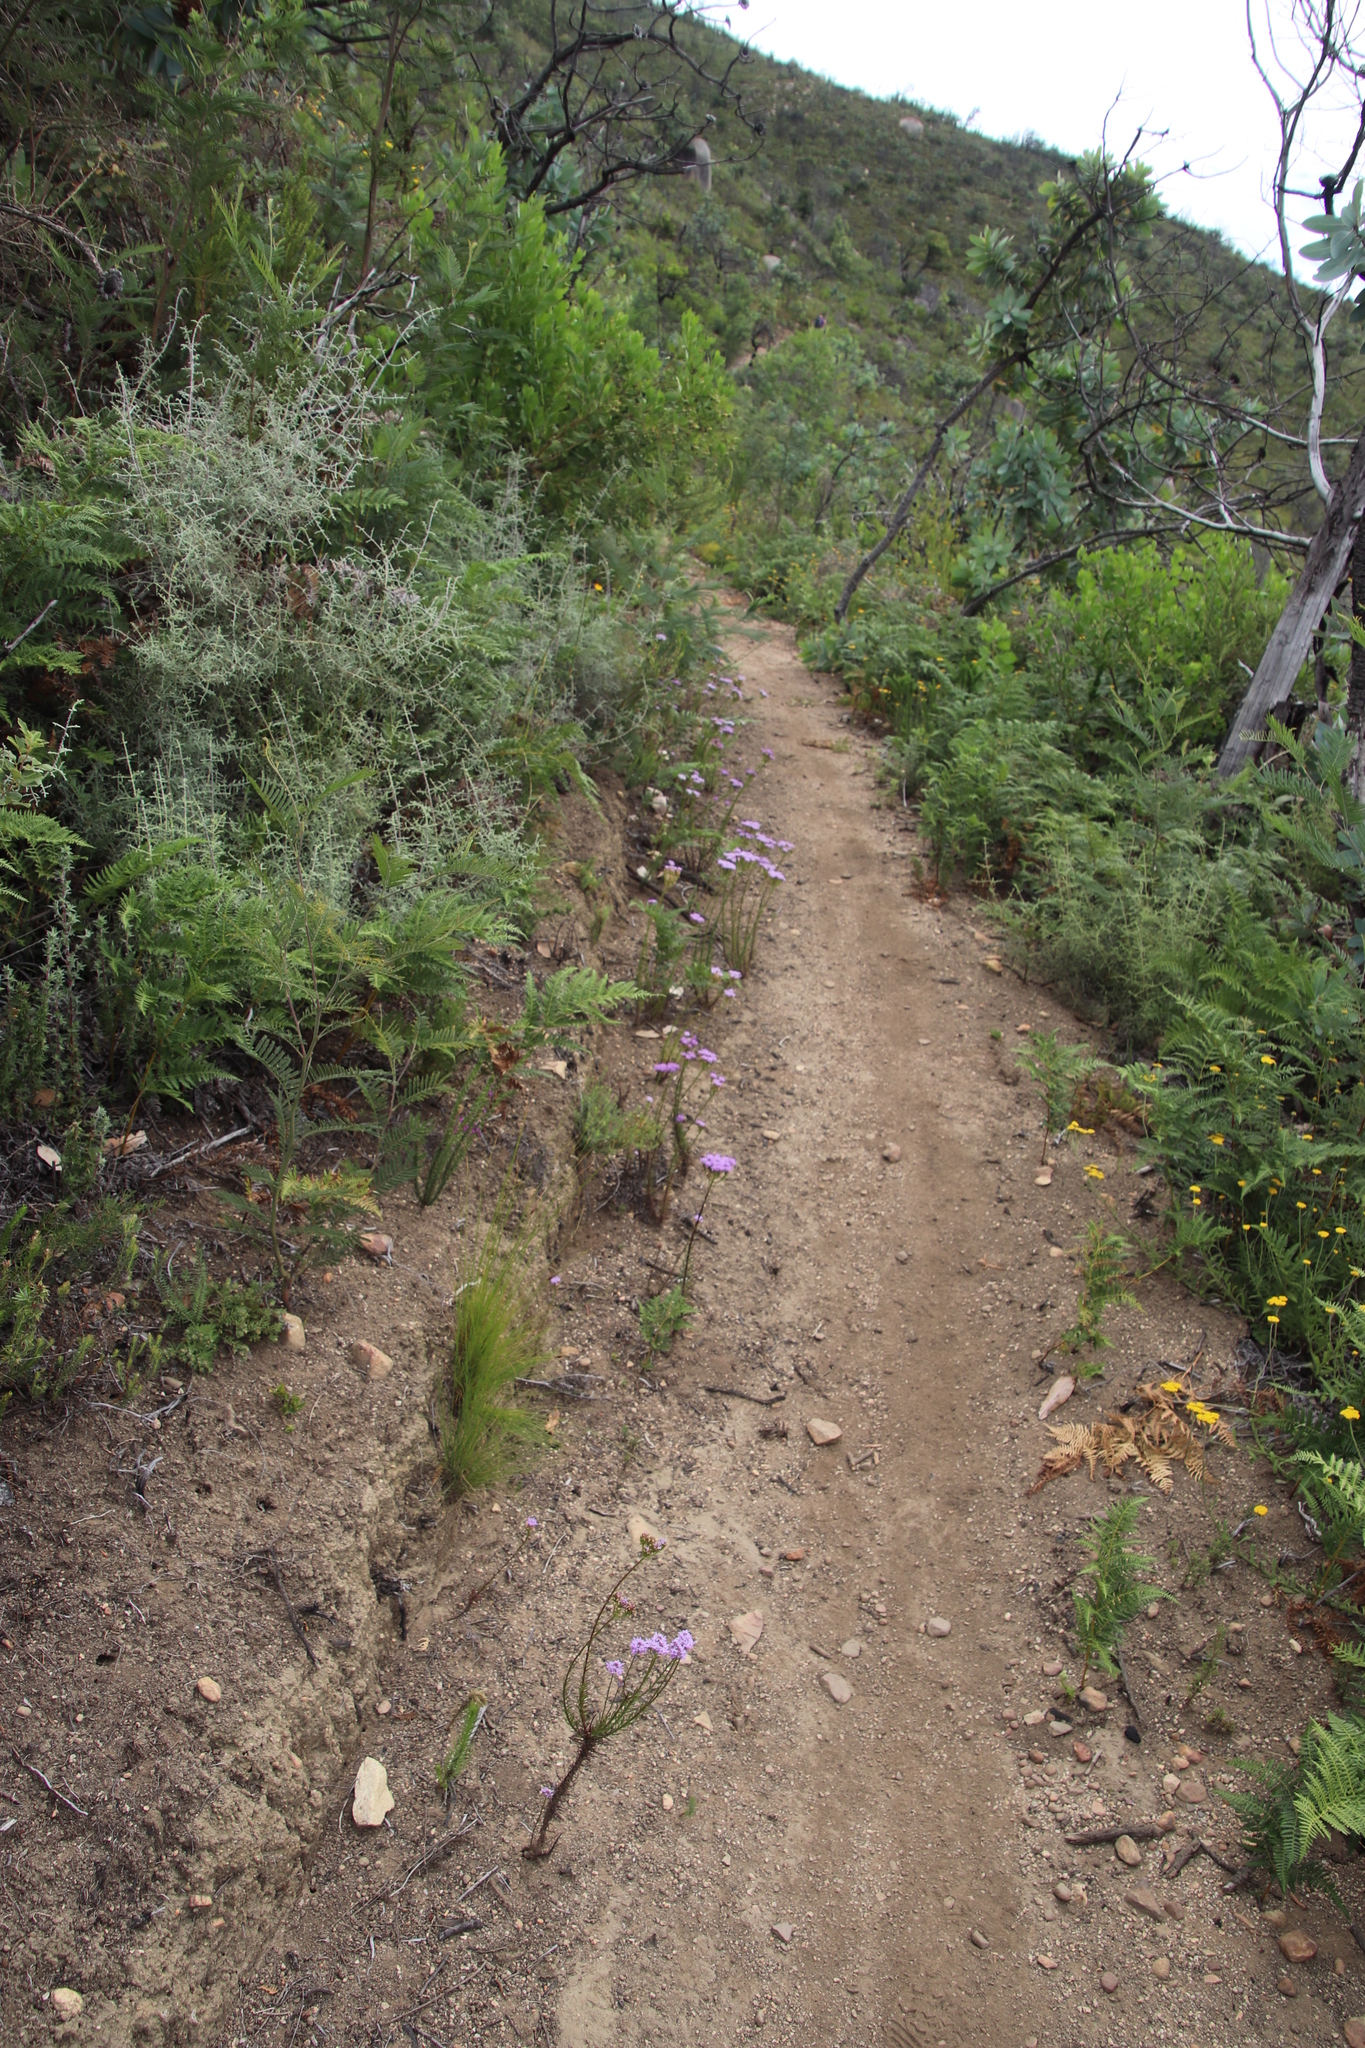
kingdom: Plantae
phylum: Tracheophyta
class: Magnoliopsida
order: Lamiales
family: Scrophulariaceae
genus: Pseudoselago
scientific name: Pseudoselago spuria
